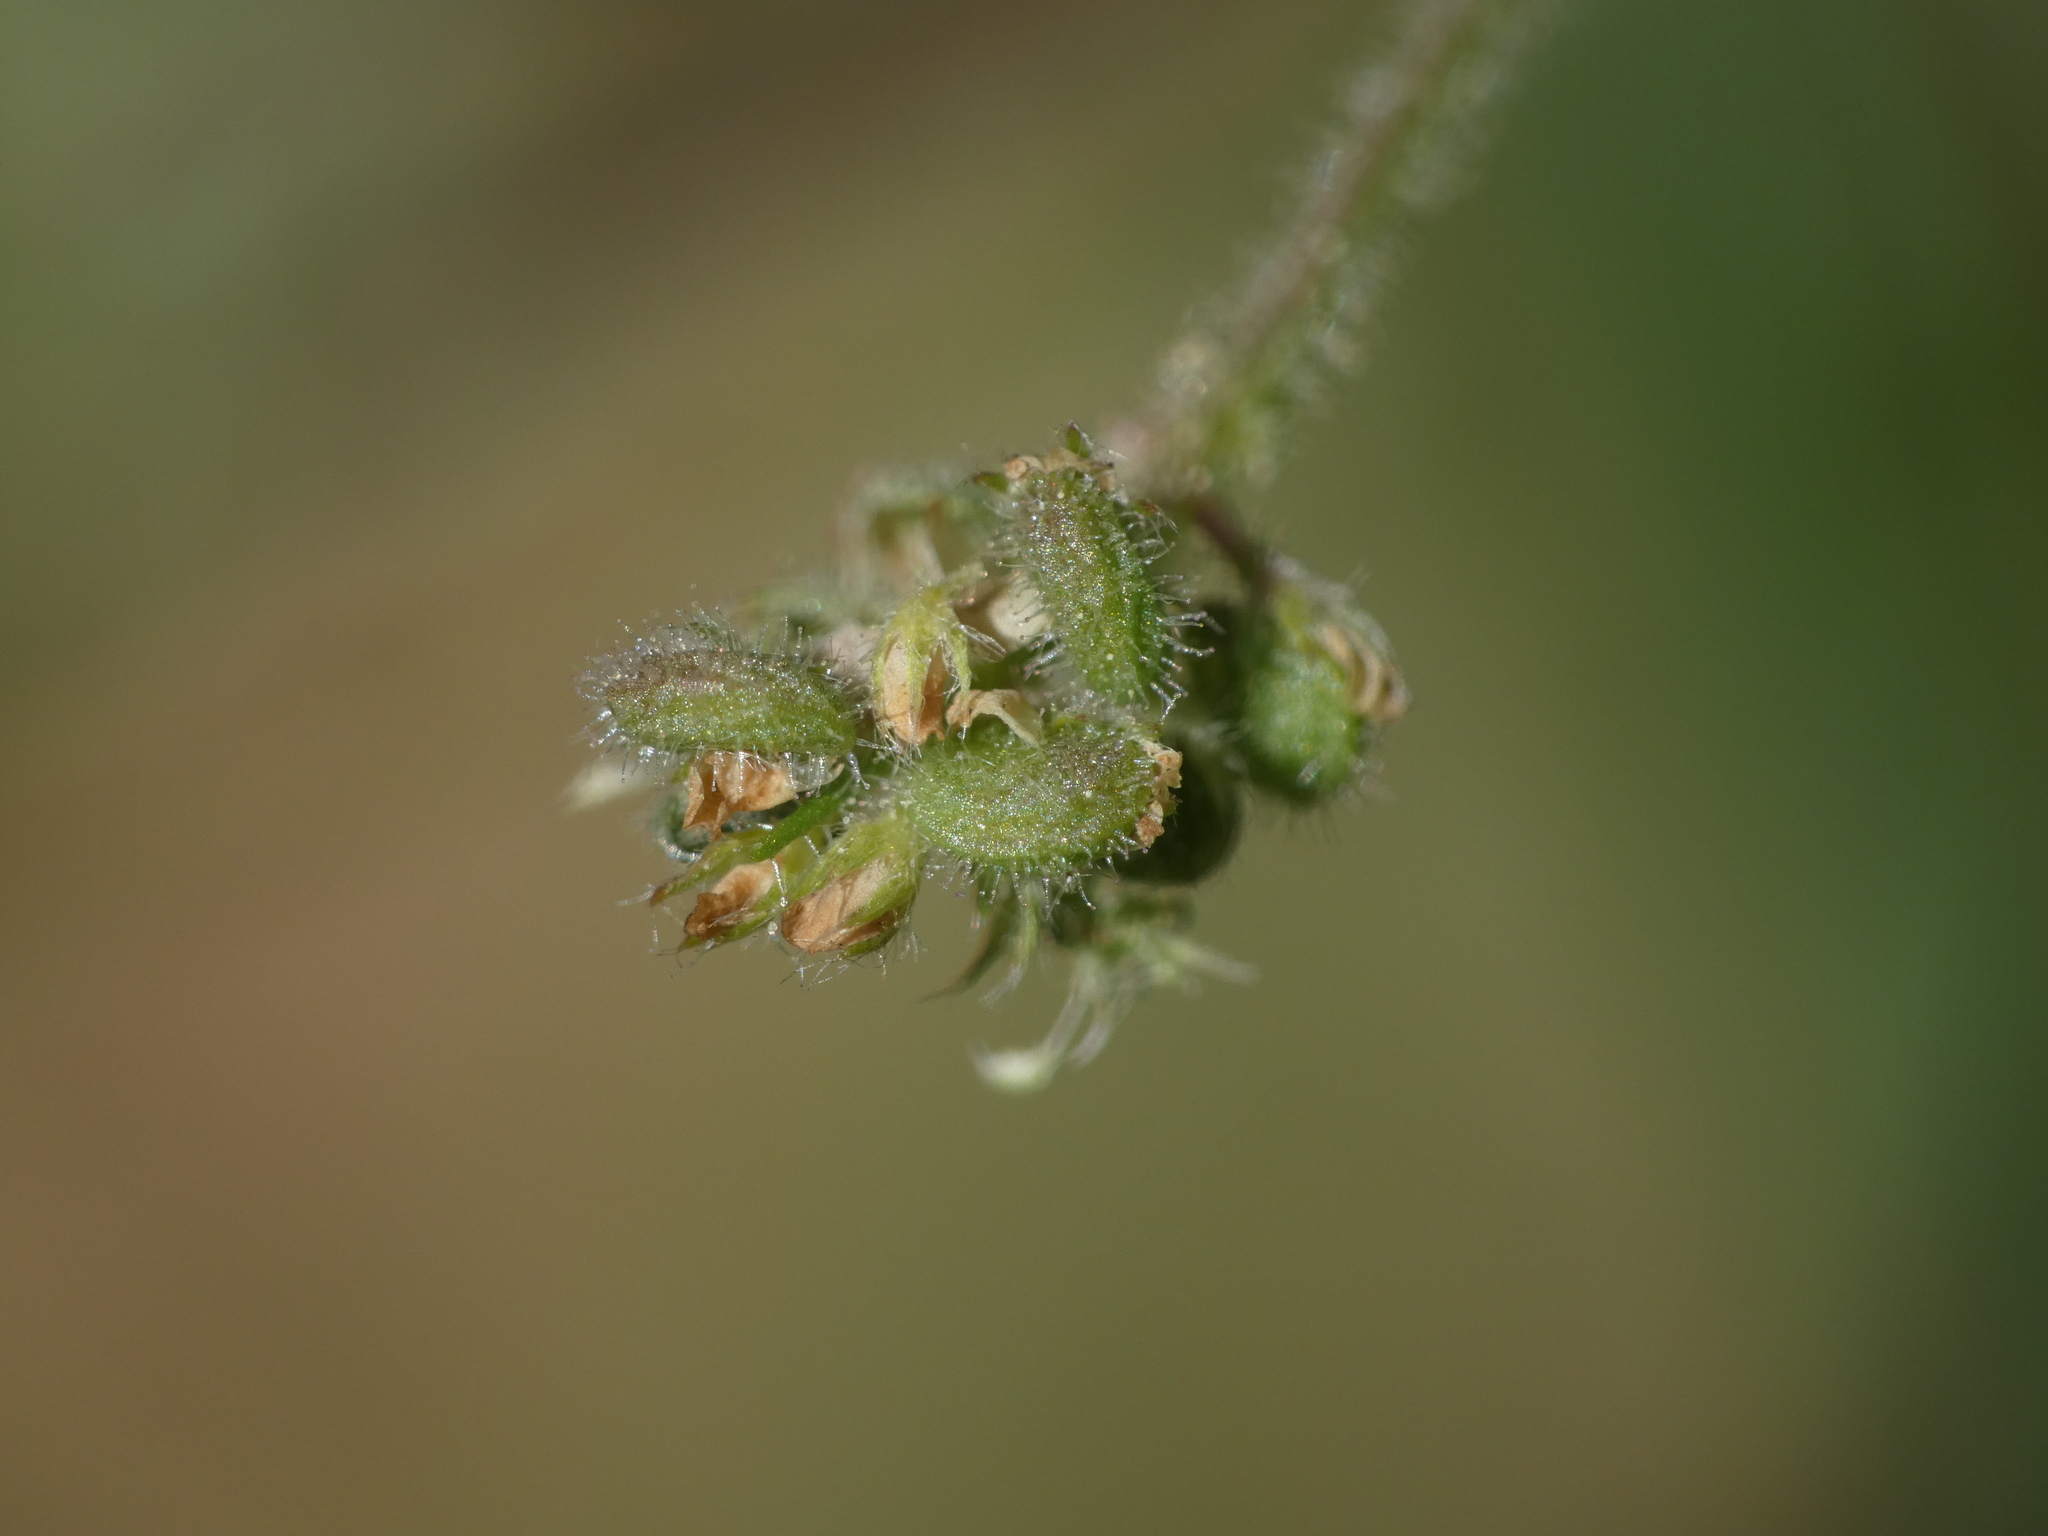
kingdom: Plantae
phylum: Tracheophyta
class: Magnoliopsida
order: Fabales
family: Fabaceae
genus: Medicago
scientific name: Medicago lupulina
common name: Black medick
